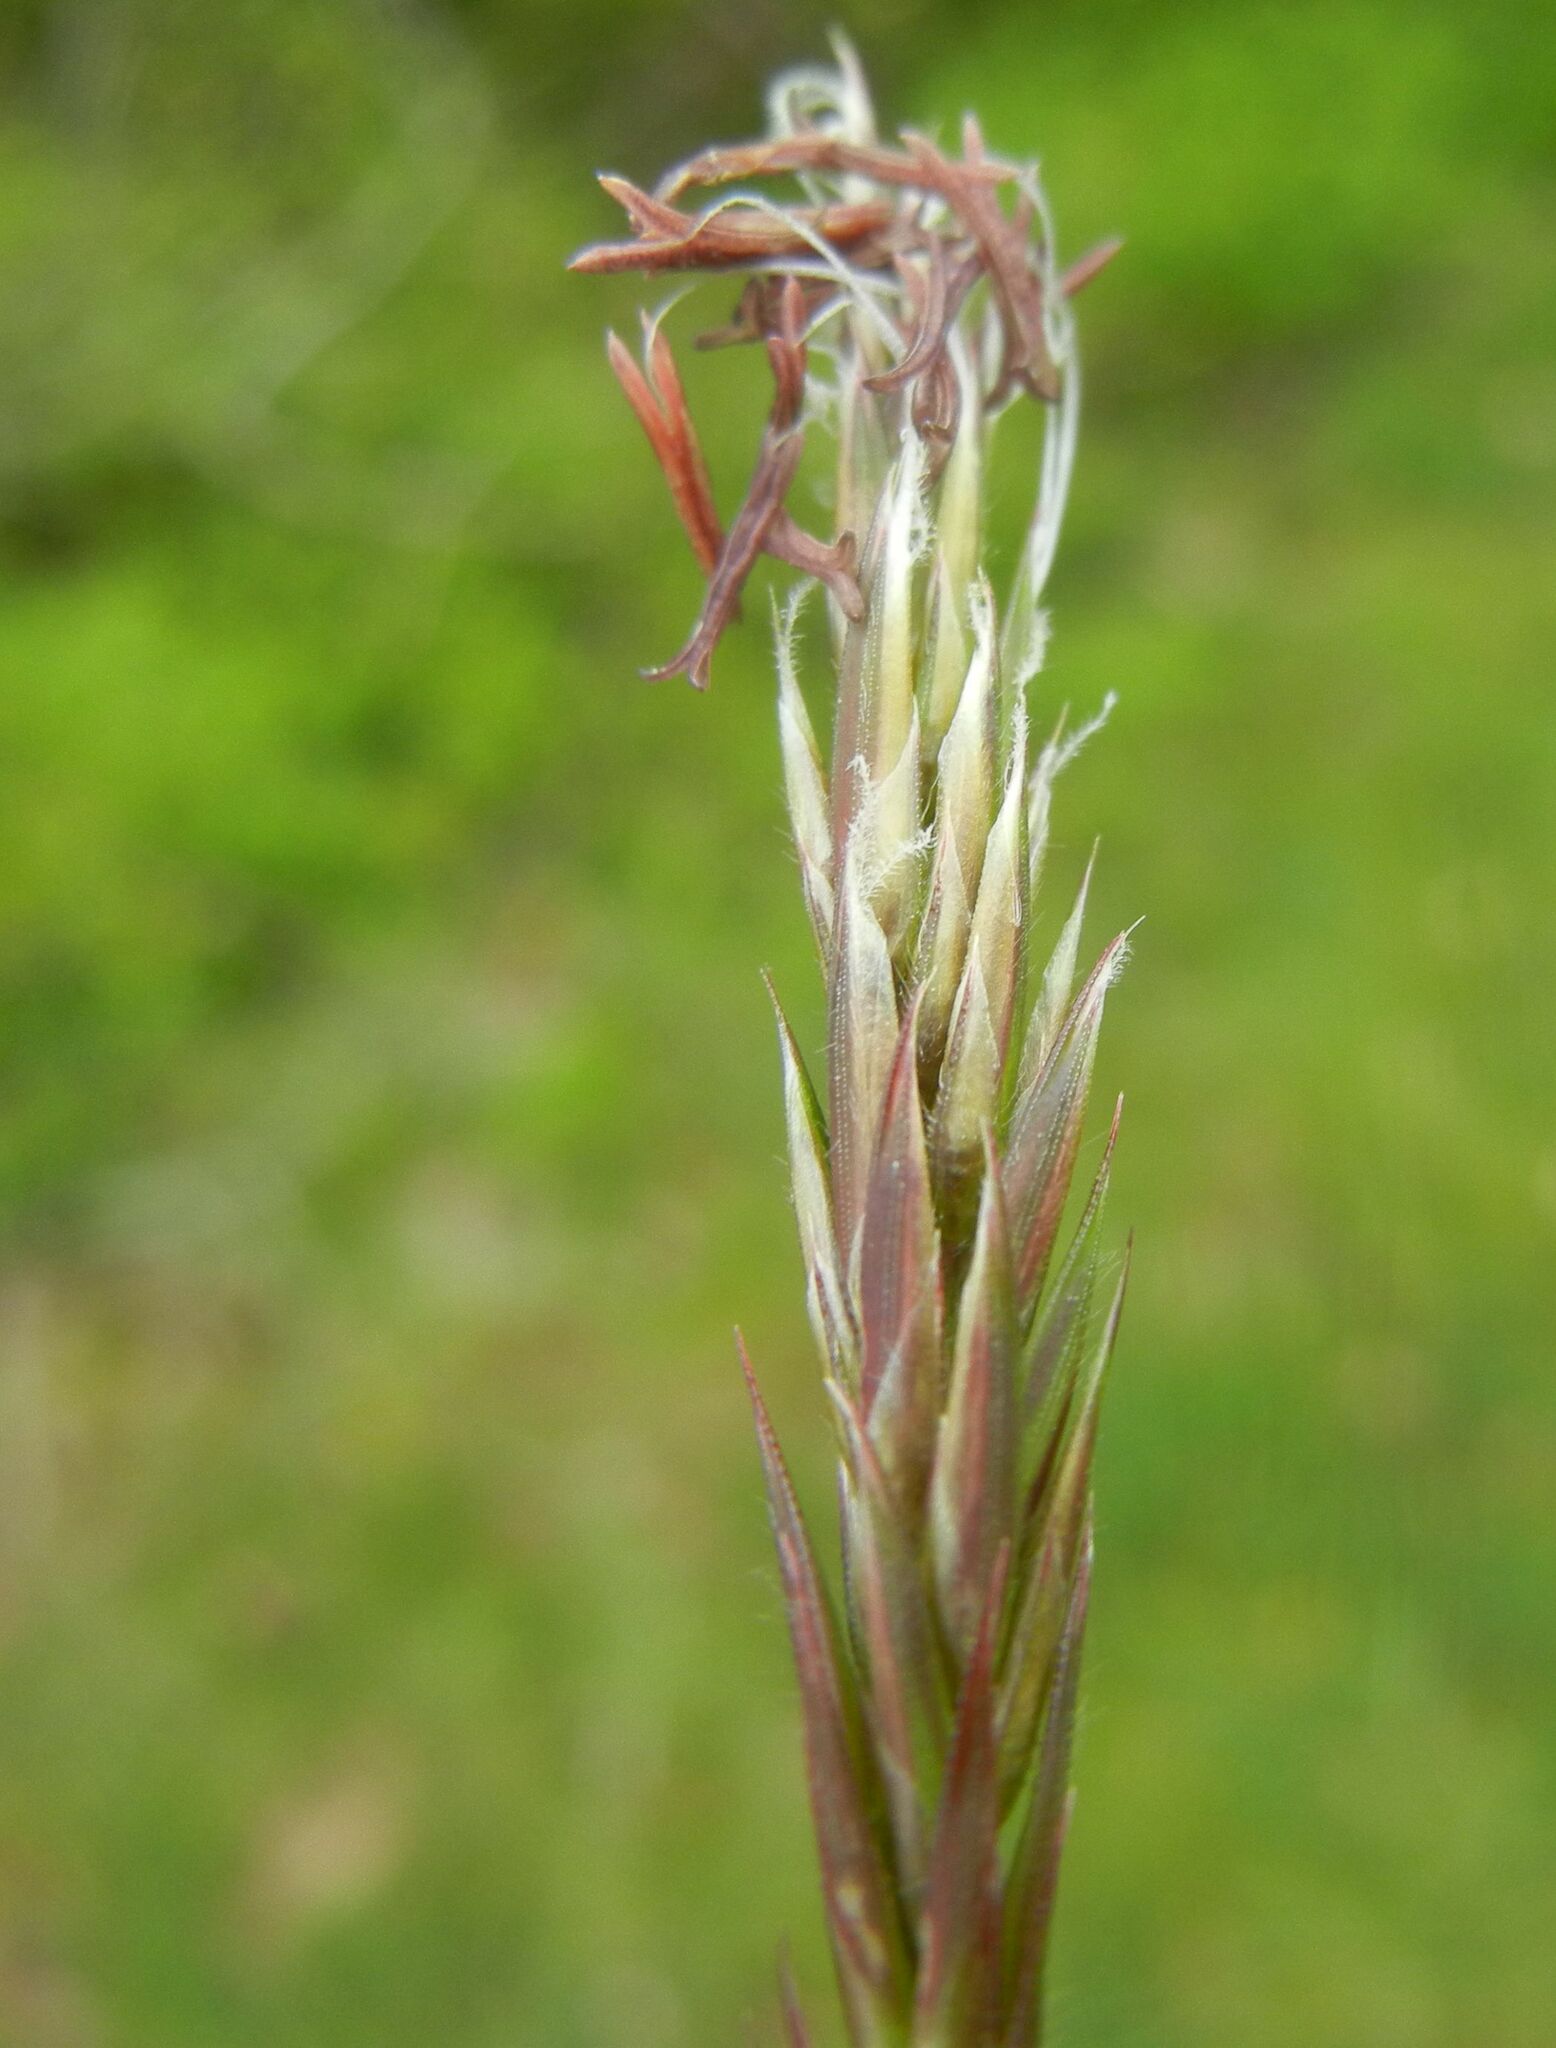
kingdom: Plantae
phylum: Tracheophyta
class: Liliopsida
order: Poales
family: Poaceae
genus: Anthoxanthum
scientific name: Anthoxanthum odoratum
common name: Sweet vernalgrass
